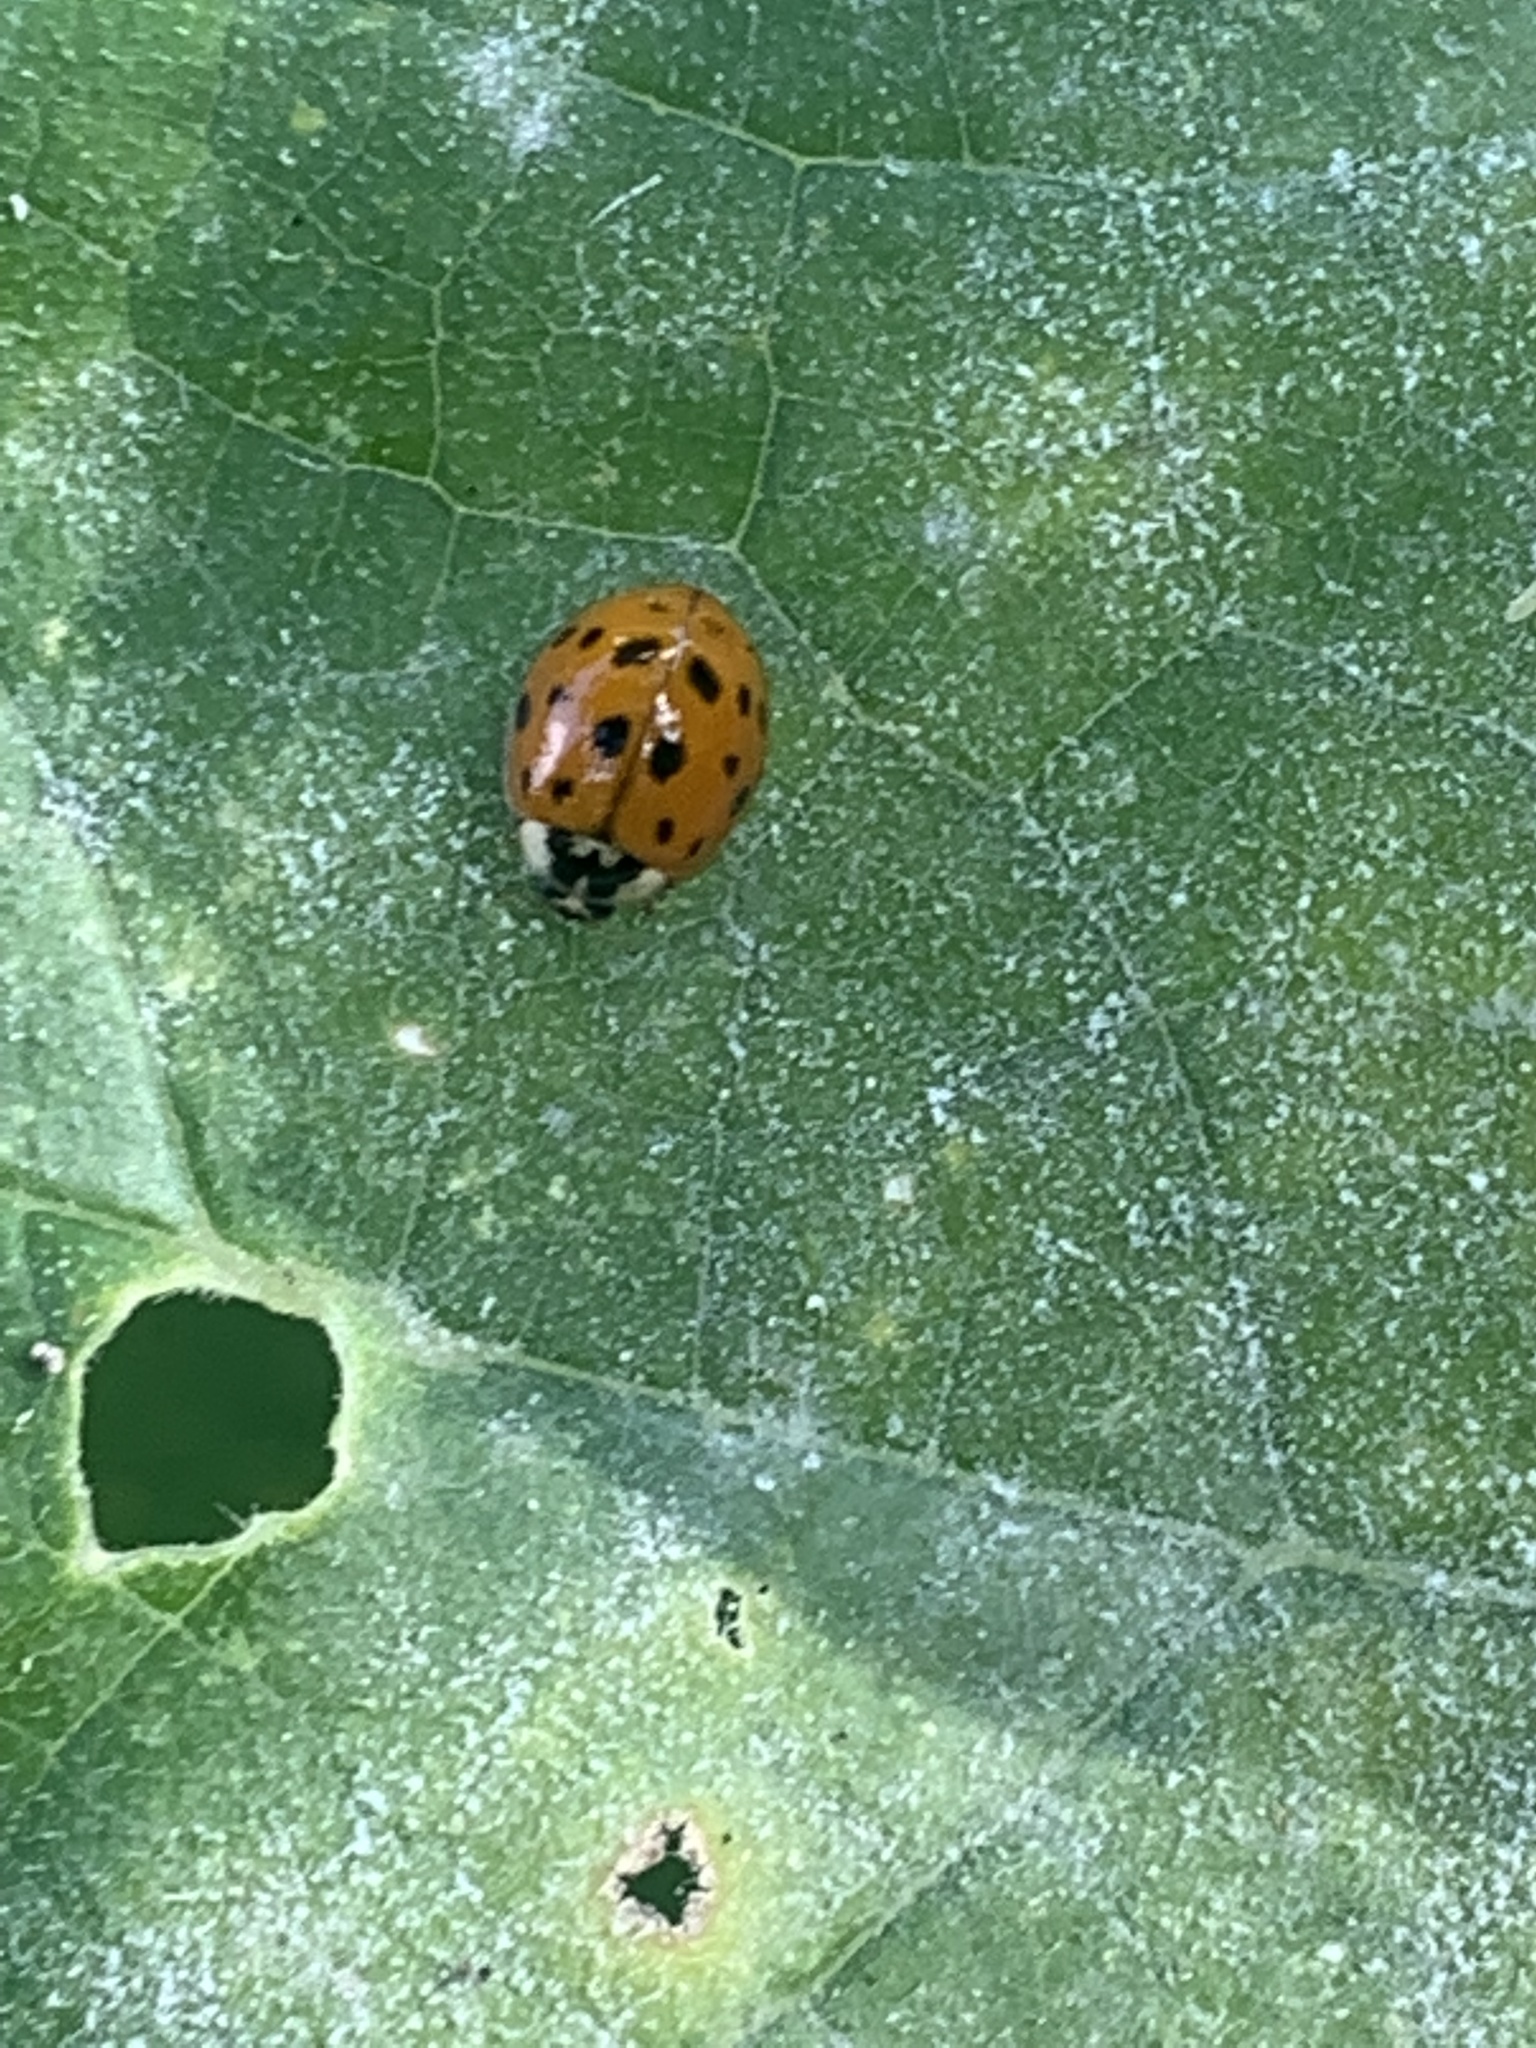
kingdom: Animalia
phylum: Arthropoda
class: Insecta
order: Coleoptera
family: Coccinellidae
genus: Harmonia
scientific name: Harmonia axyridis
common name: Harlequin ladybird
